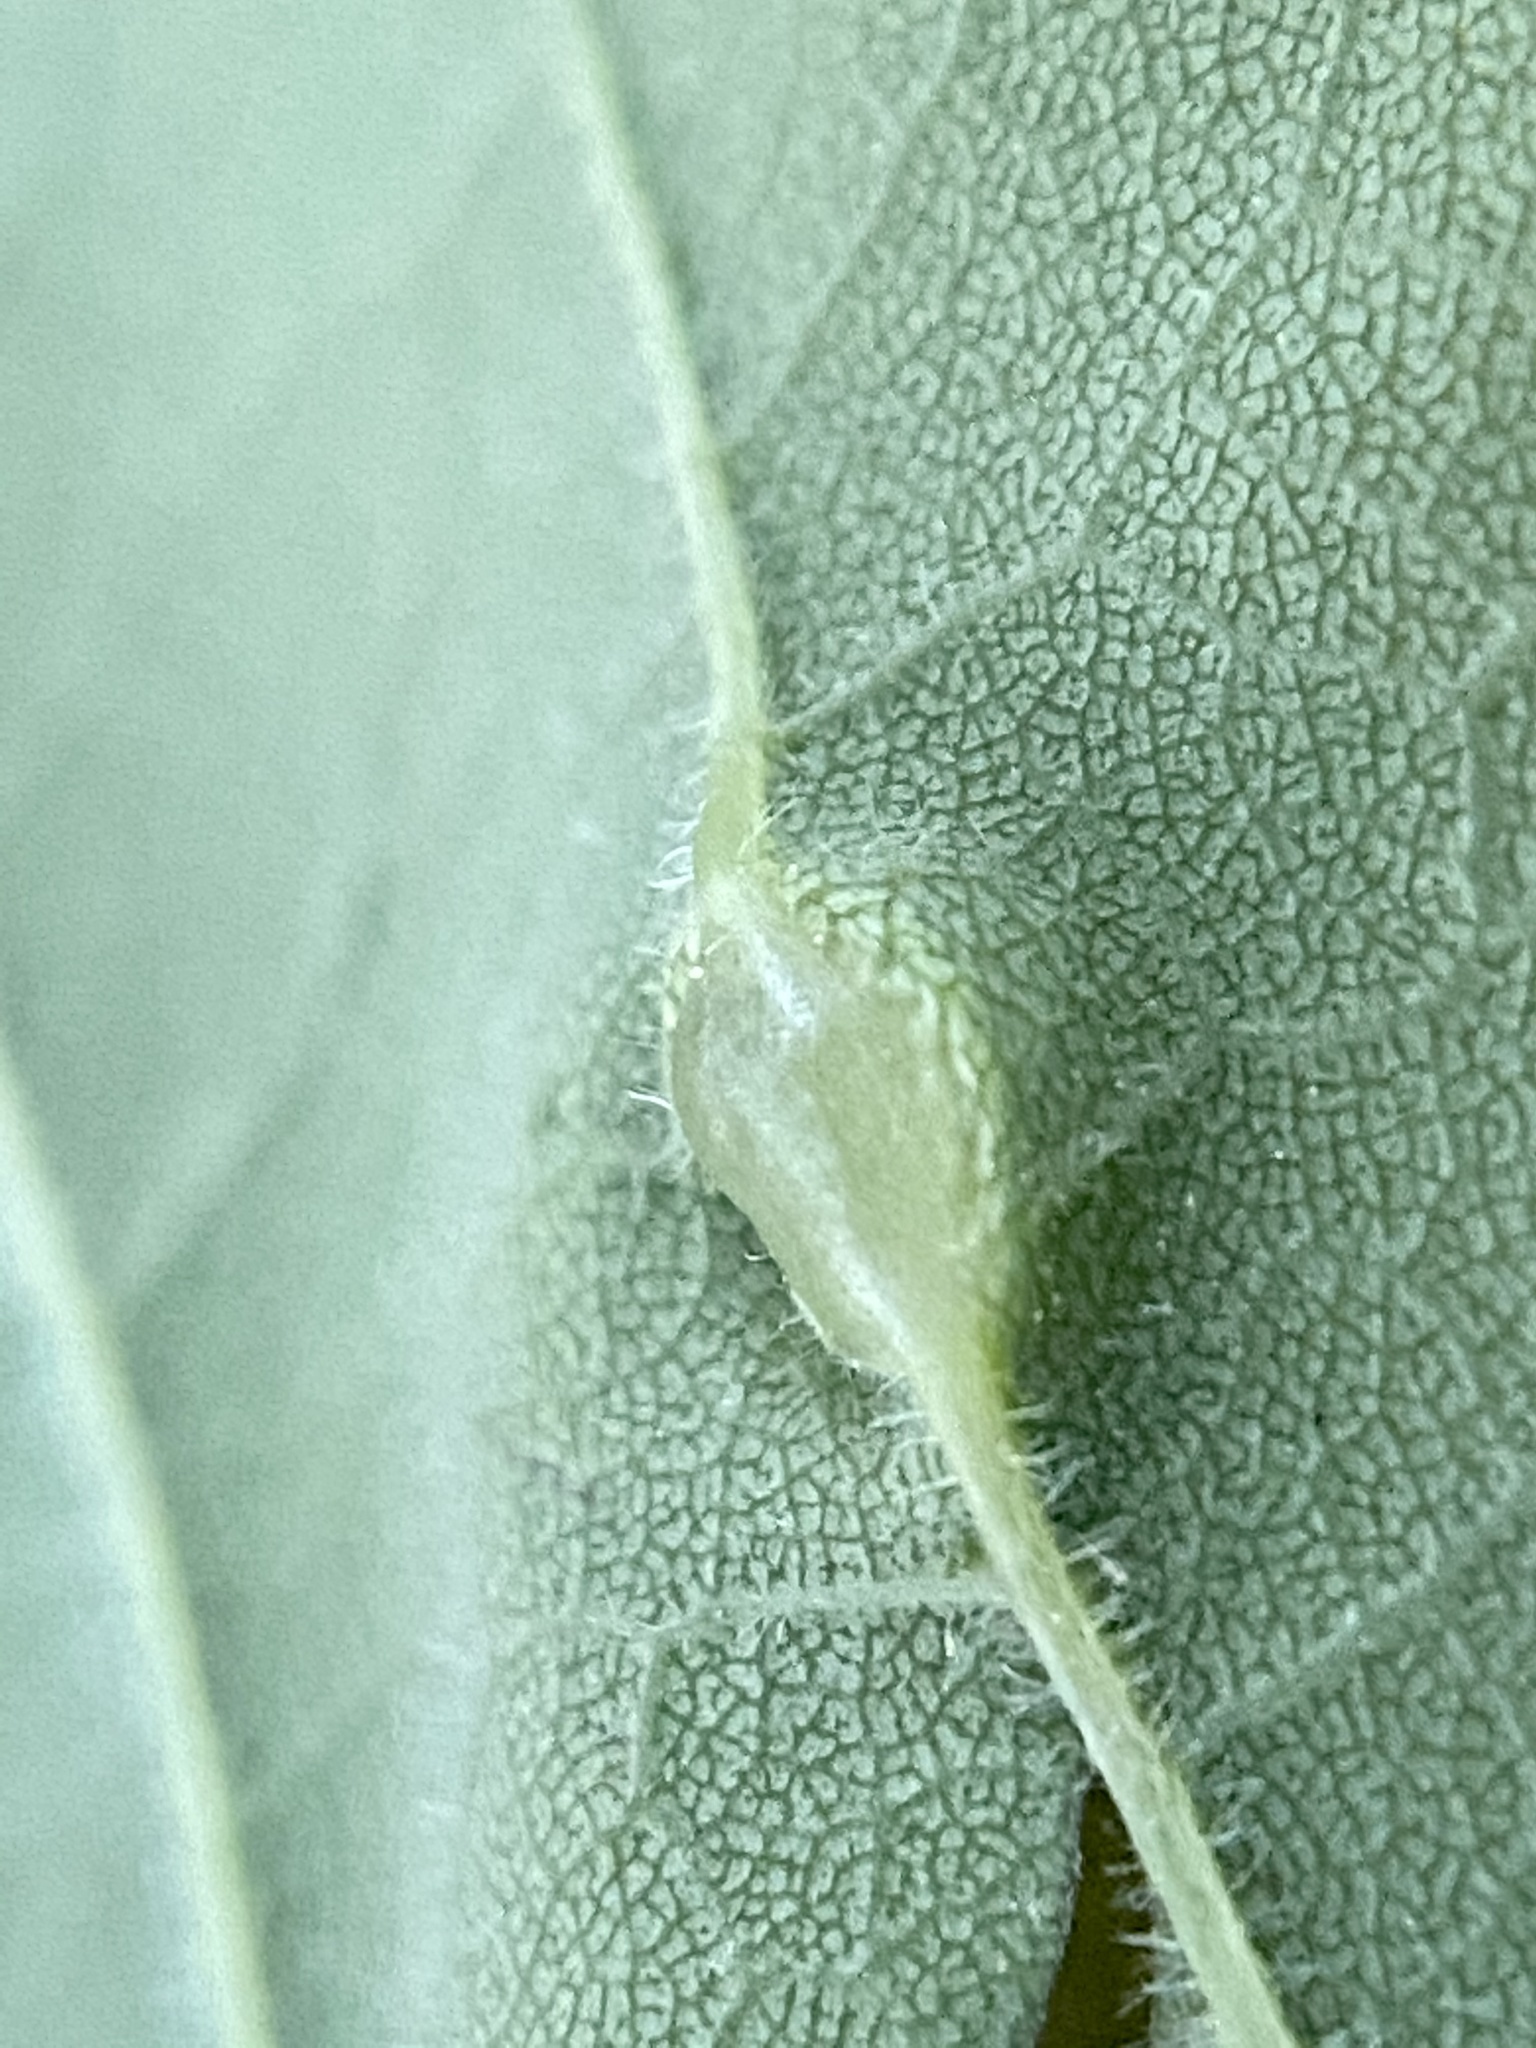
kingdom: Animalia
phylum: Arthropoda
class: Insecta
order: Diptera
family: Cecidomyiidae
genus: Dasineura
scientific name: Dasineura pellex
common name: Ash bullet gall midge
